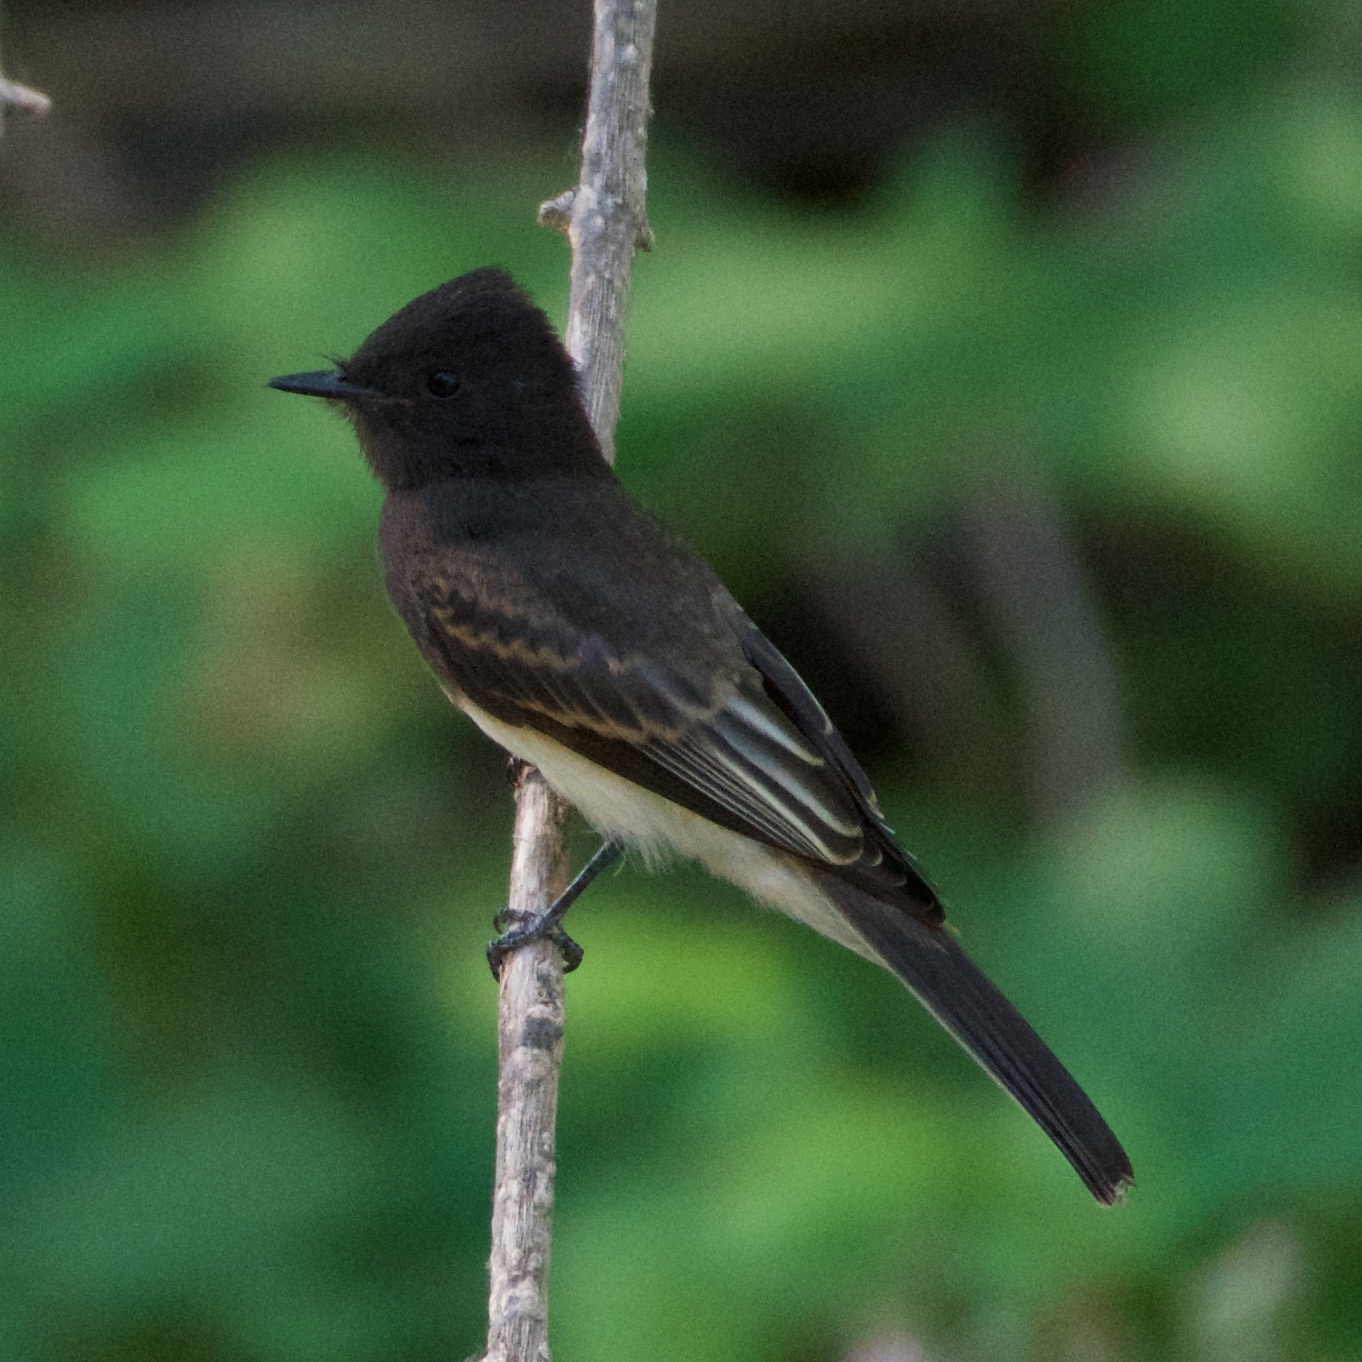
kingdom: Animalia
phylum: Chordata
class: Aves
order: Passeriformes
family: Tyrannidae
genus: Sayornis
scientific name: Sayornis nigricans
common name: Black phoebe
